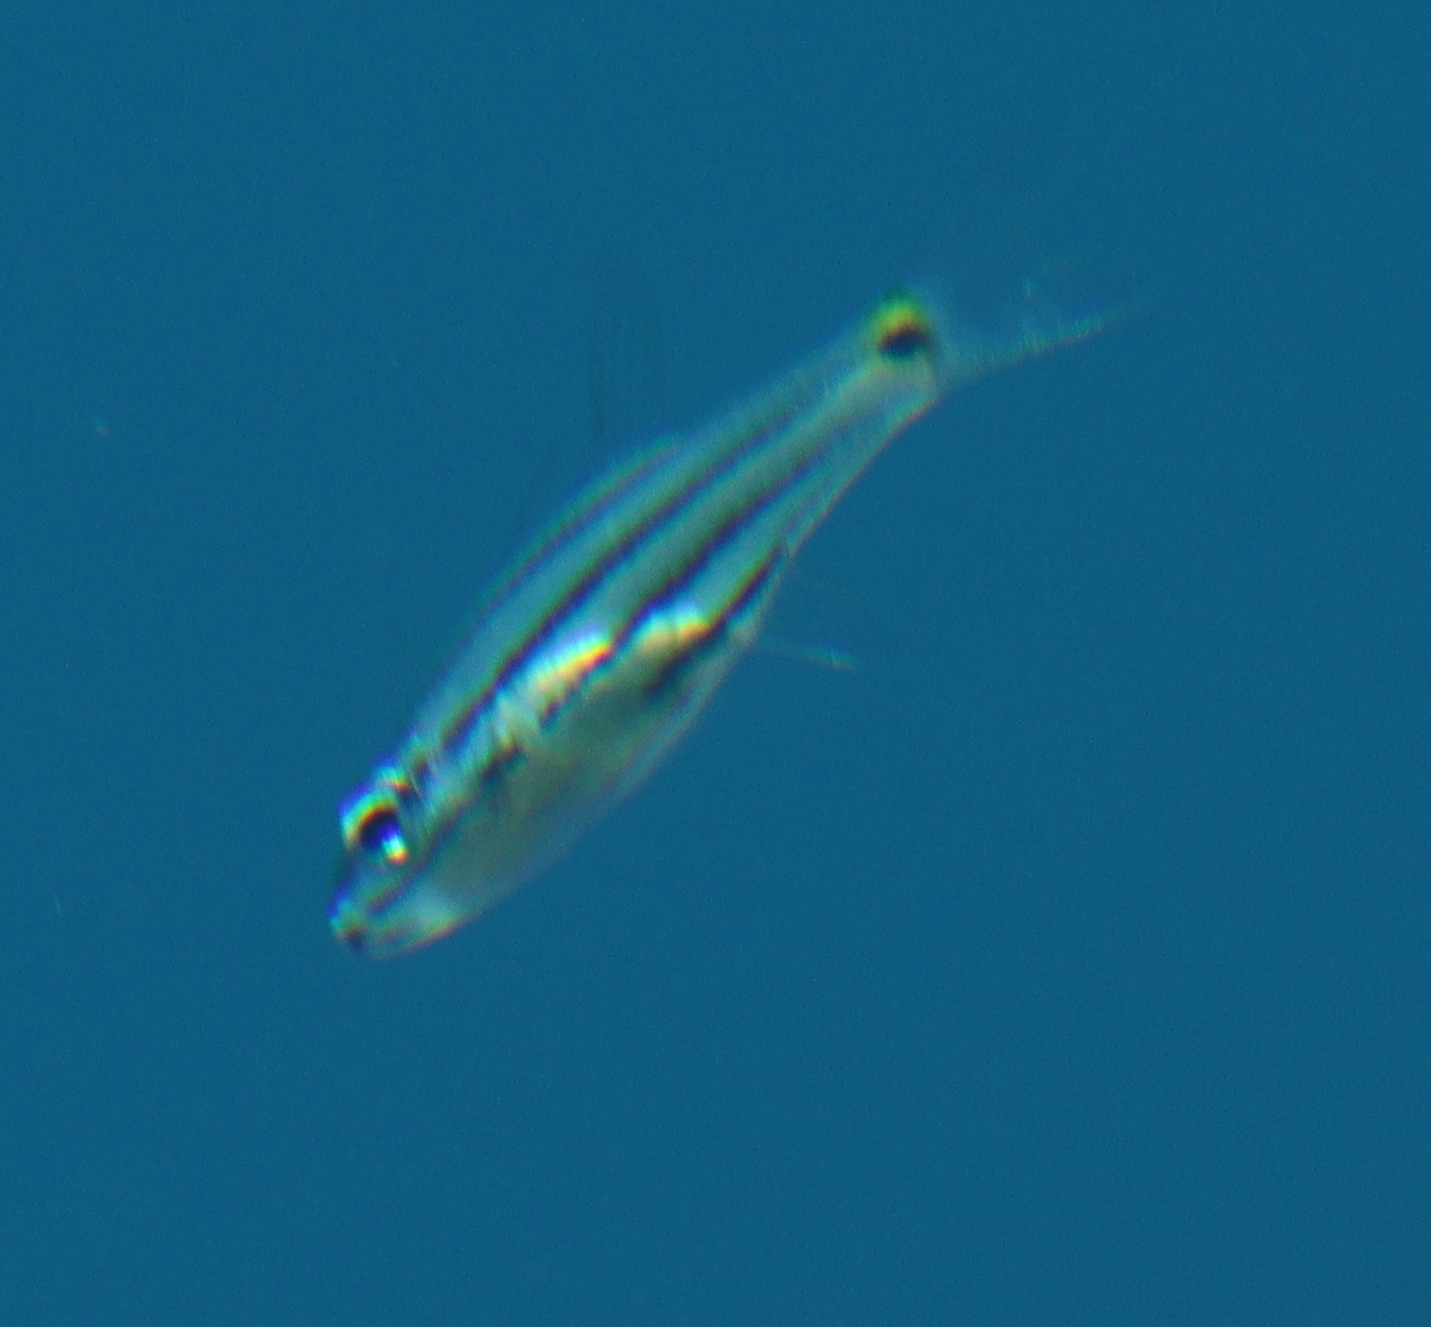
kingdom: Animalia
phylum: Chordata
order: Perciformes
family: Apogonidae
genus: Cheilodipterus
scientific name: Cheilodipterus quinquelineatus
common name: Five-lined cardinalfish
